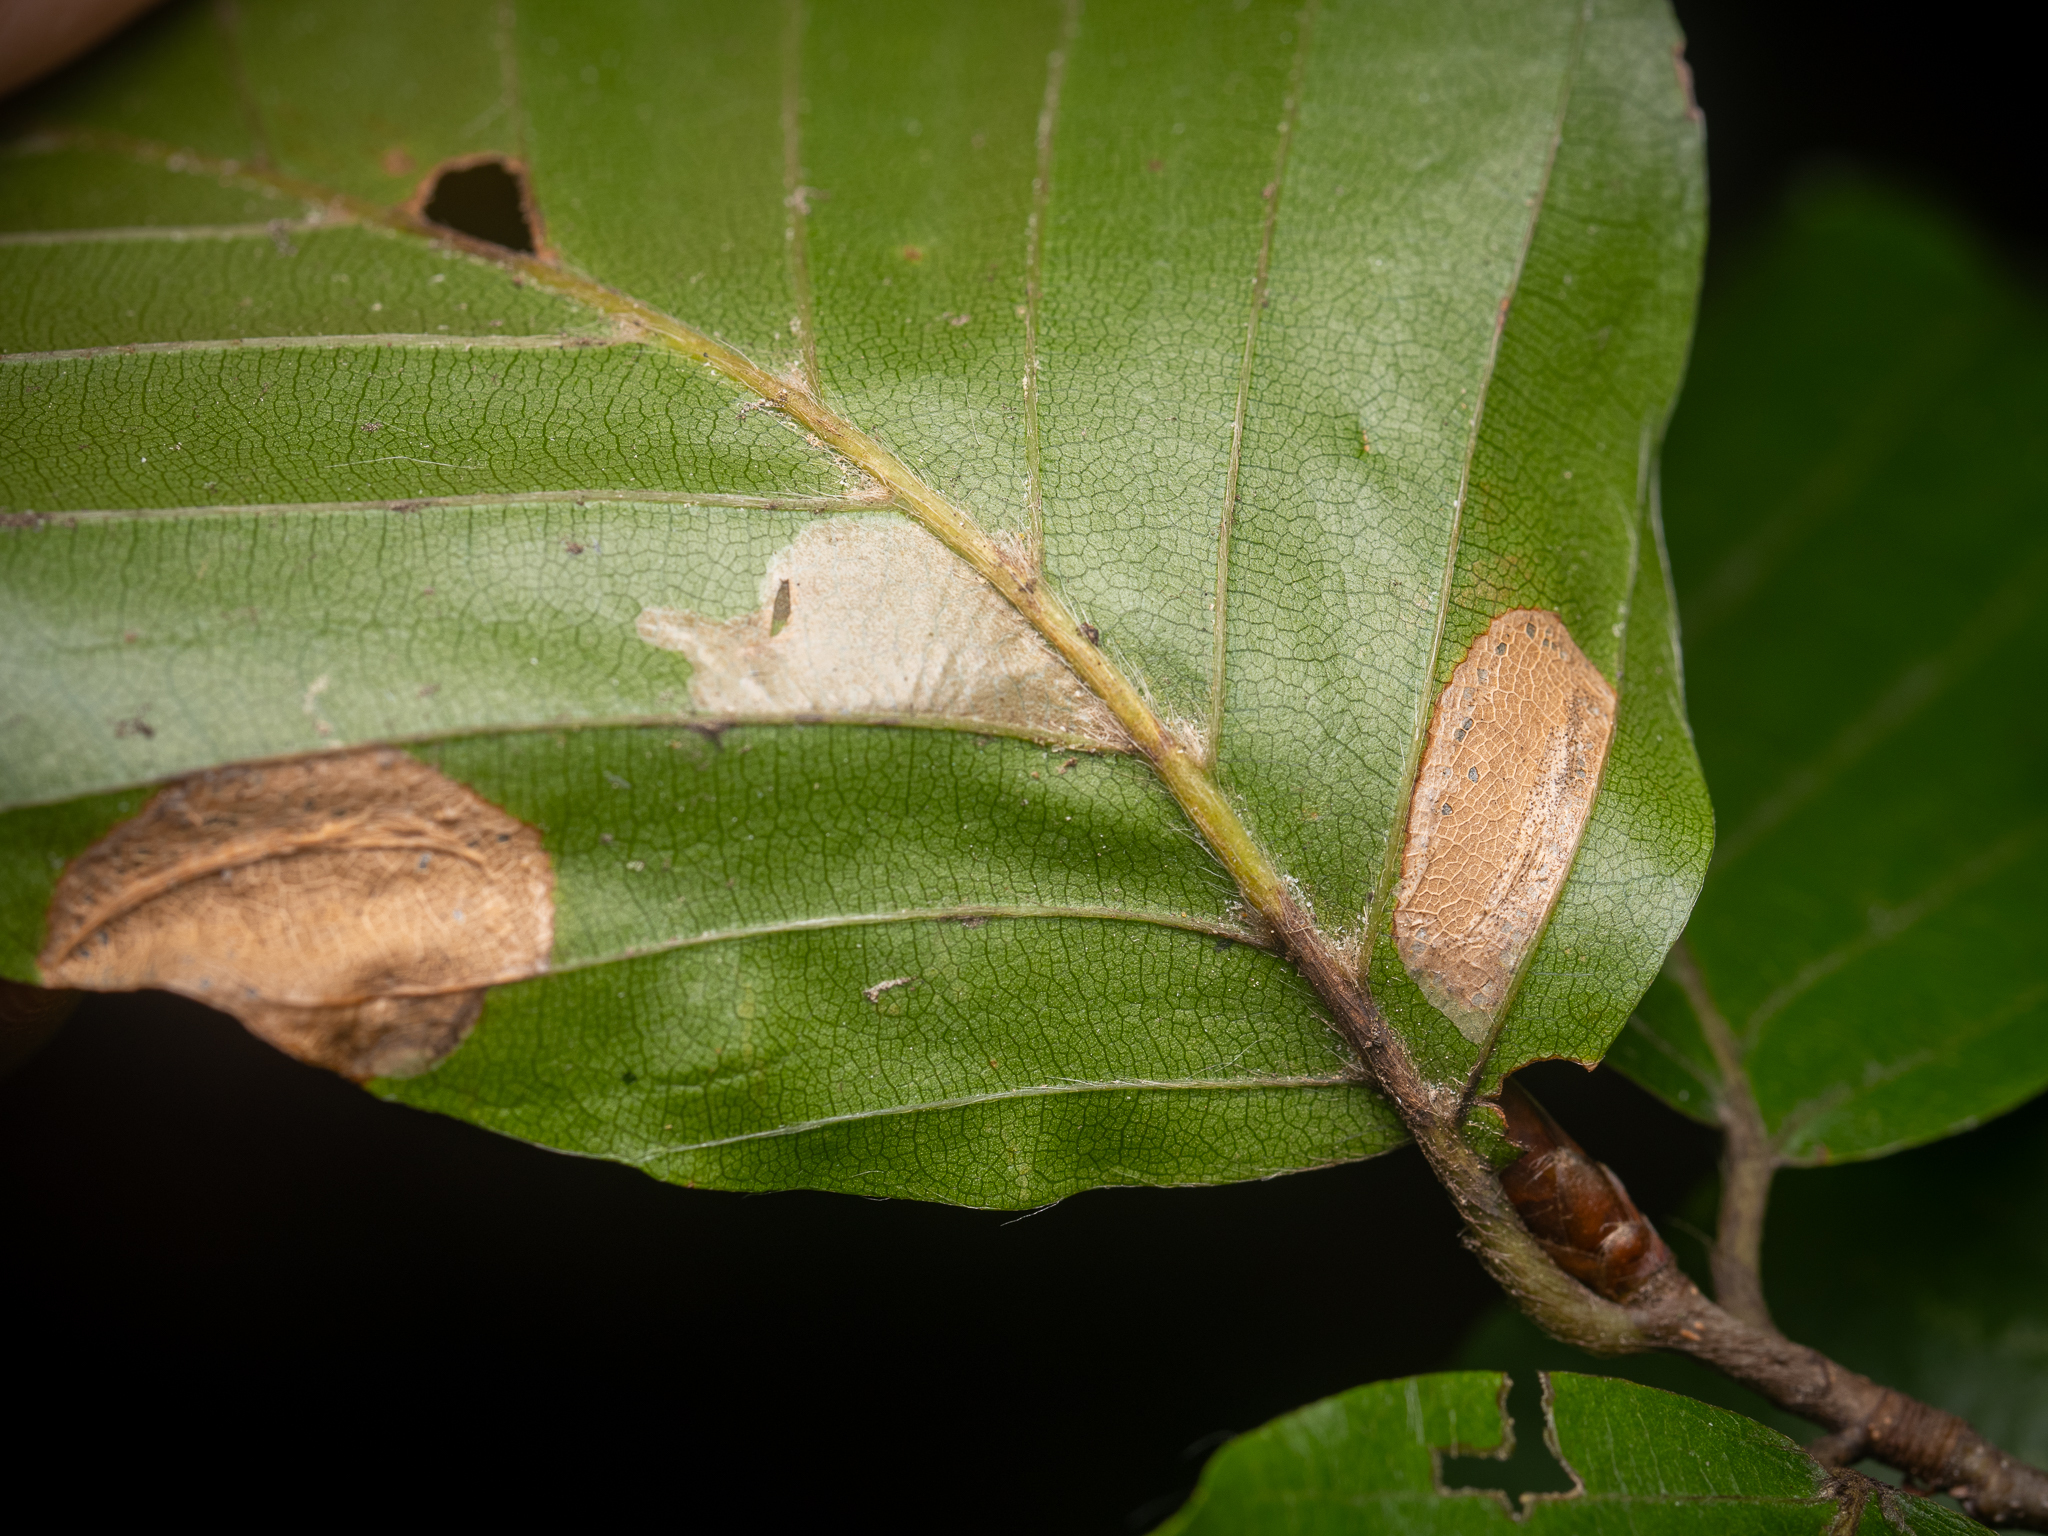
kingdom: Animalia
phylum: Arthropoda
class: Insecta
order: Lepidoptera
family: Gracillariidae
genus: Phyllonorycter
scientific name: Phyllonorycter messaniella
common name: Garden midget
